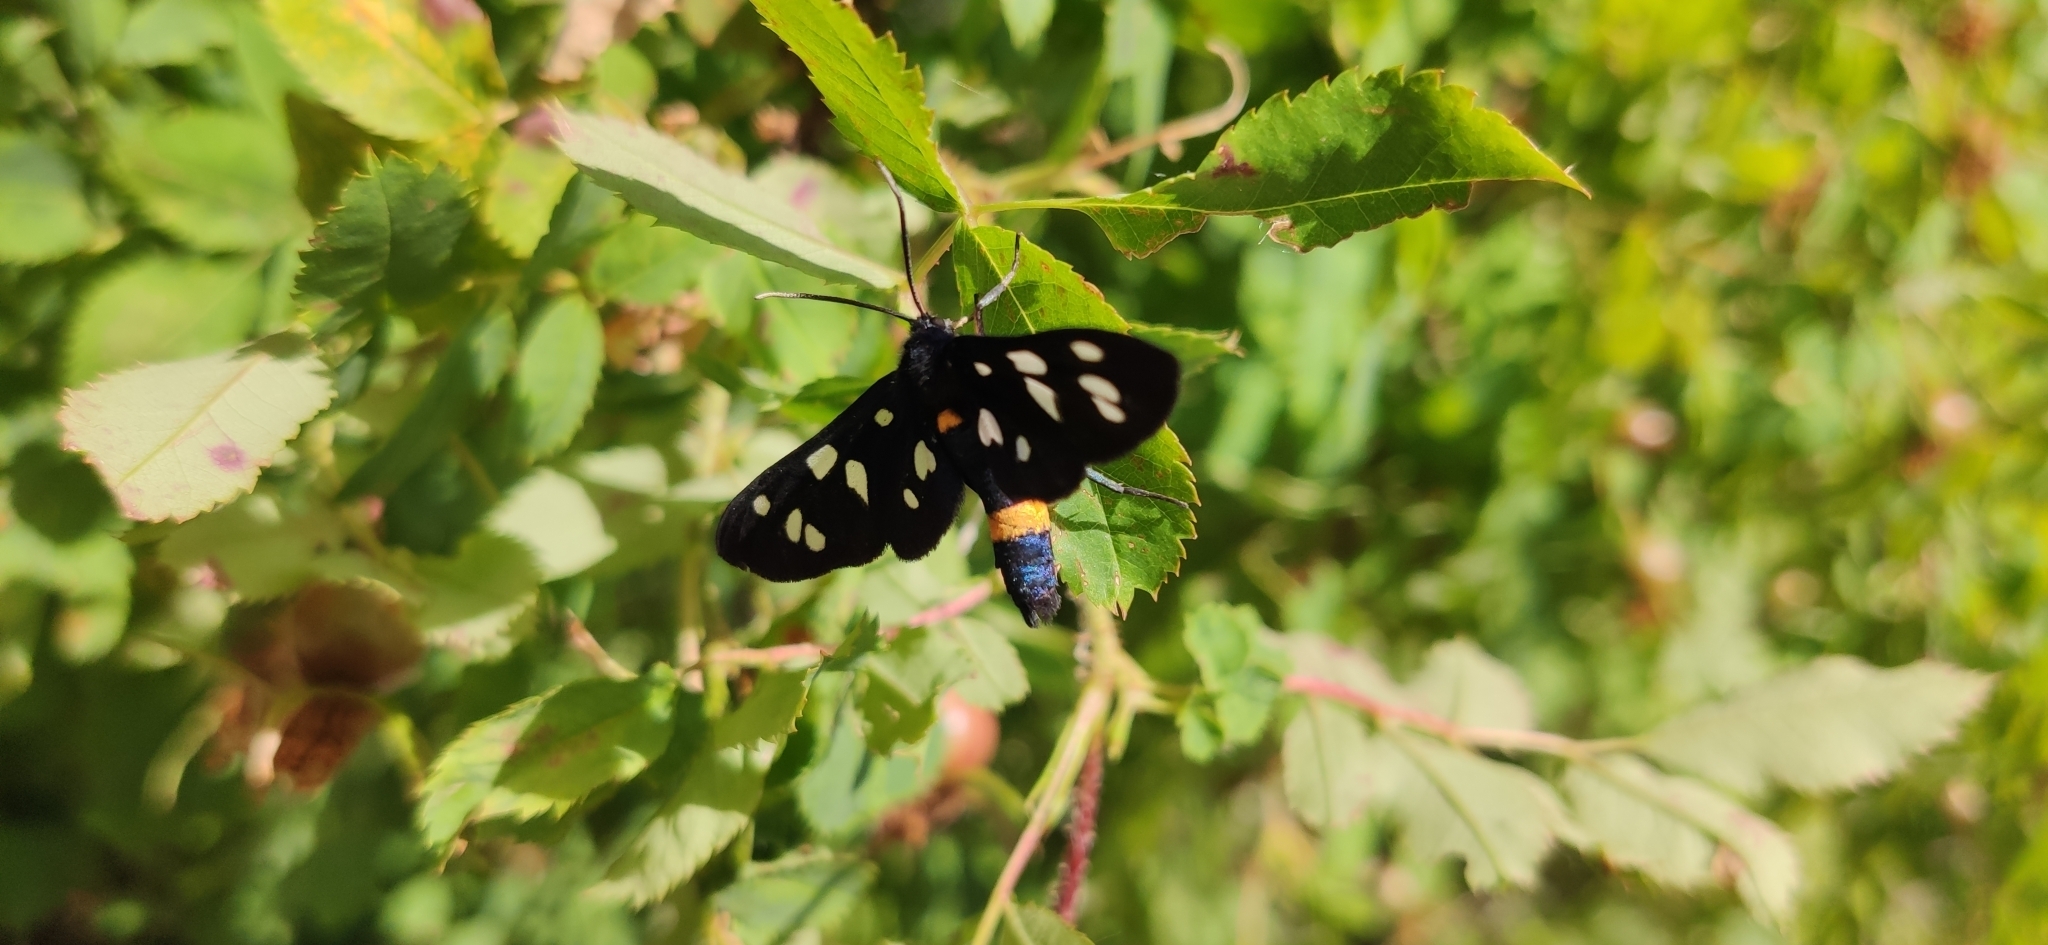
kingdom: Animalia
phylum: Arthropoda
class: Insecta
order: Lepidoptera
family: Erebidae
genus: Amata
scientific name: Amata nigricornis
